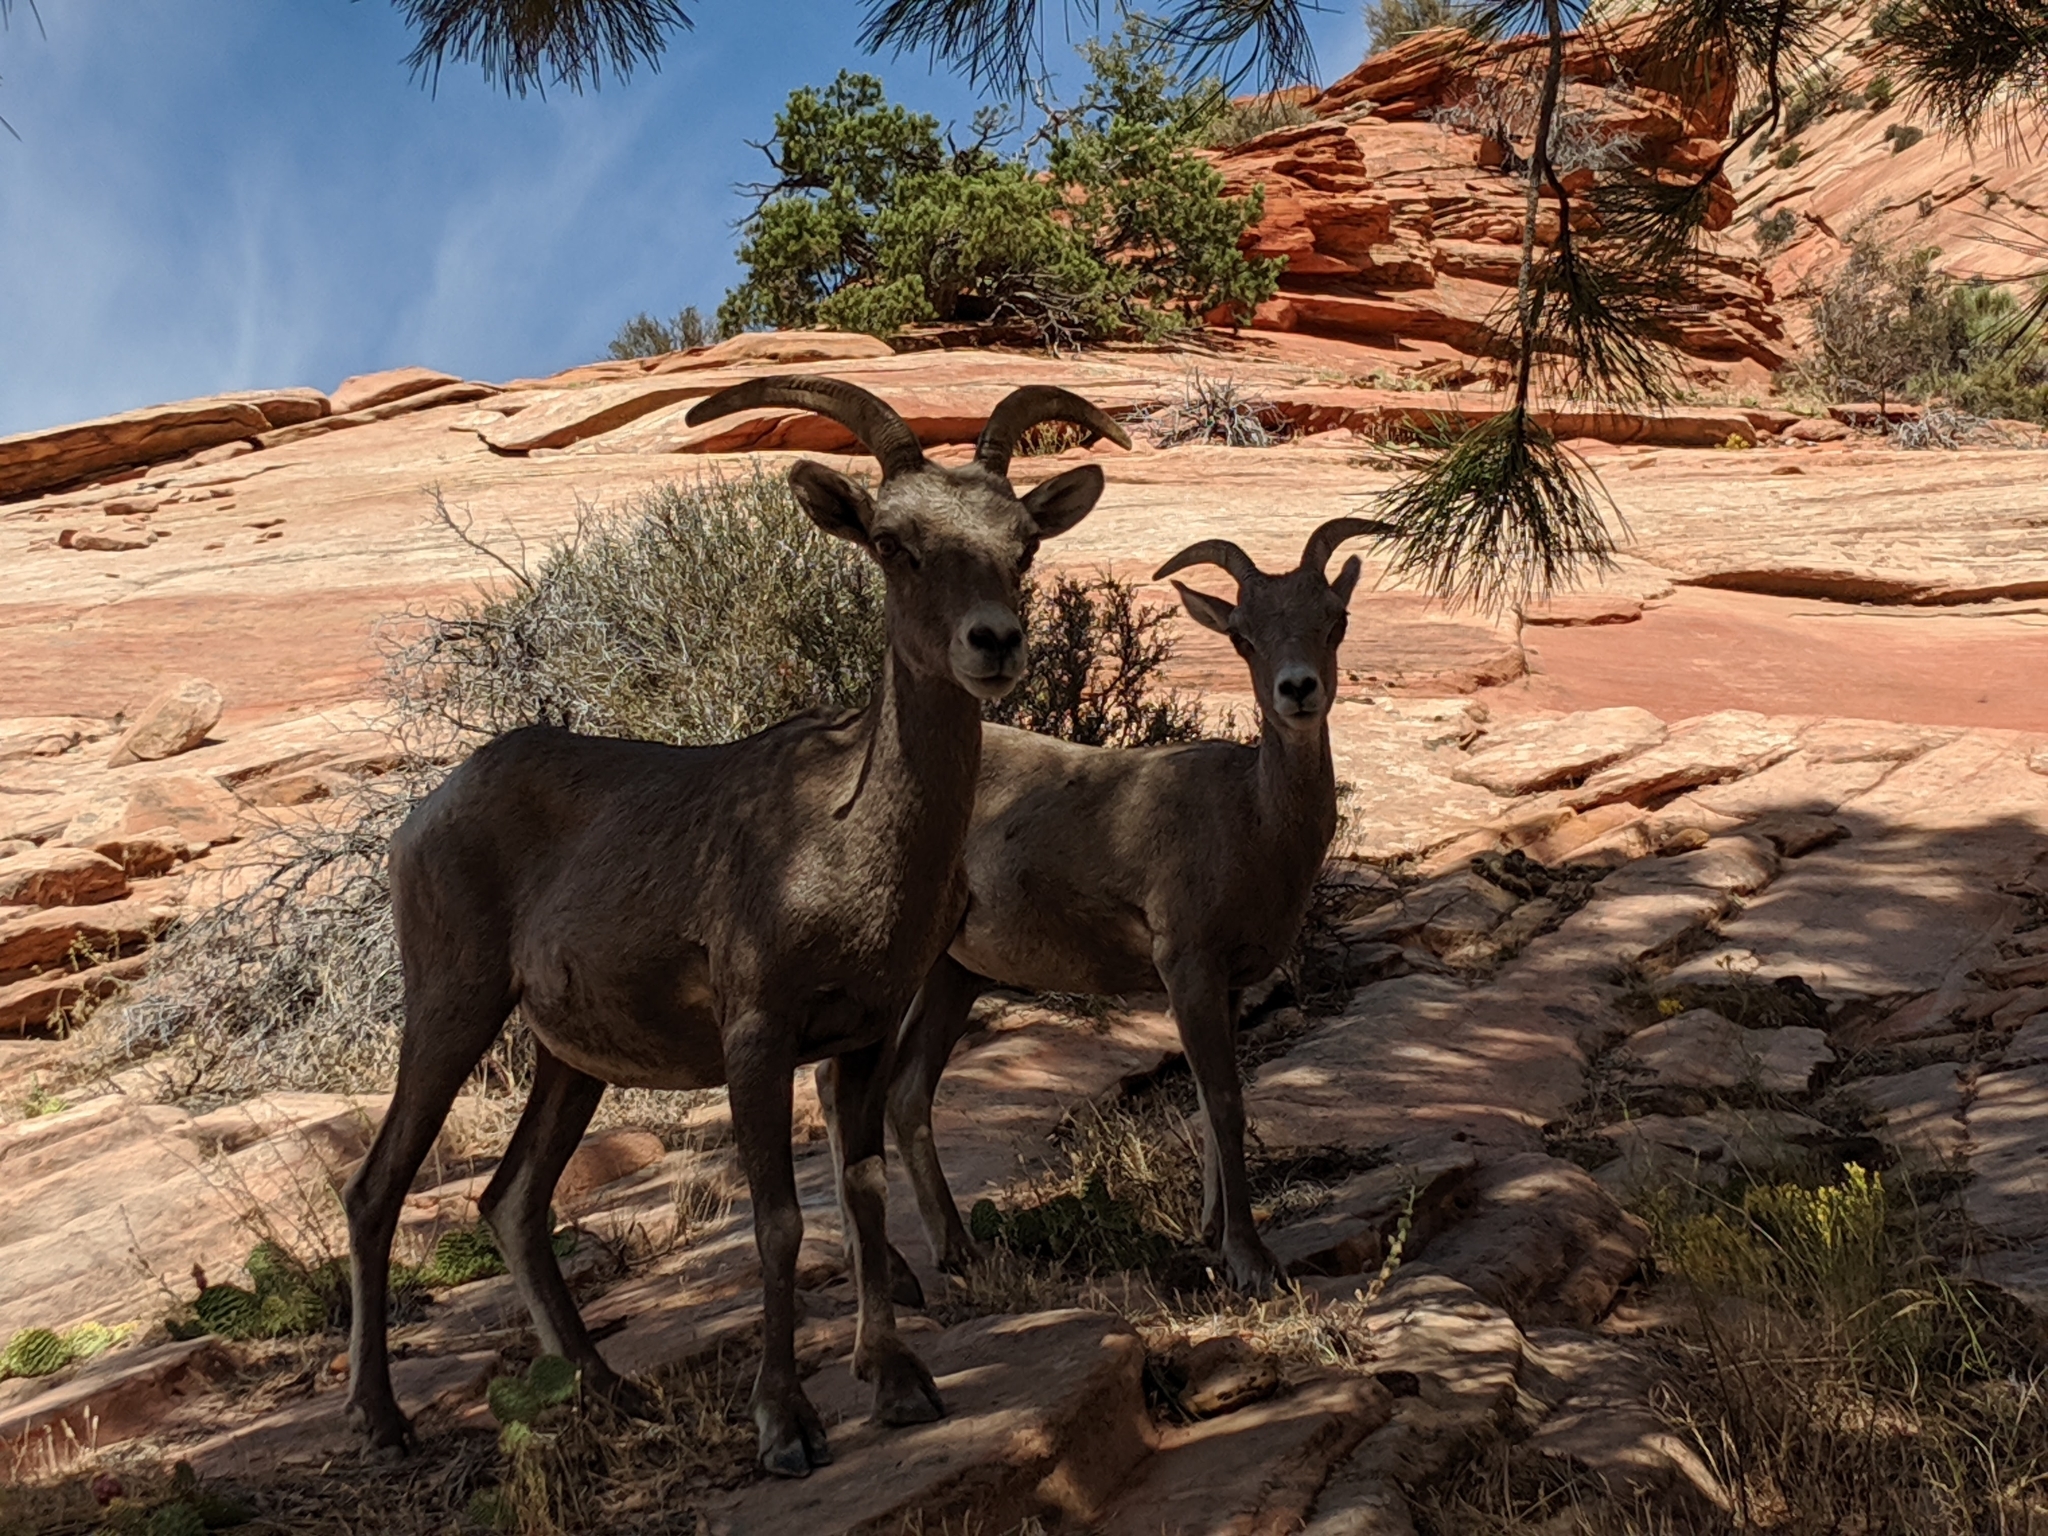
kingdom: Animalia
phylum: Chordata
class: Mammalia
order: Artiodactyla
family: Bovidae
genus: Ovis
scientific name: Ovis canadensis
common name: Bighorn sheep
